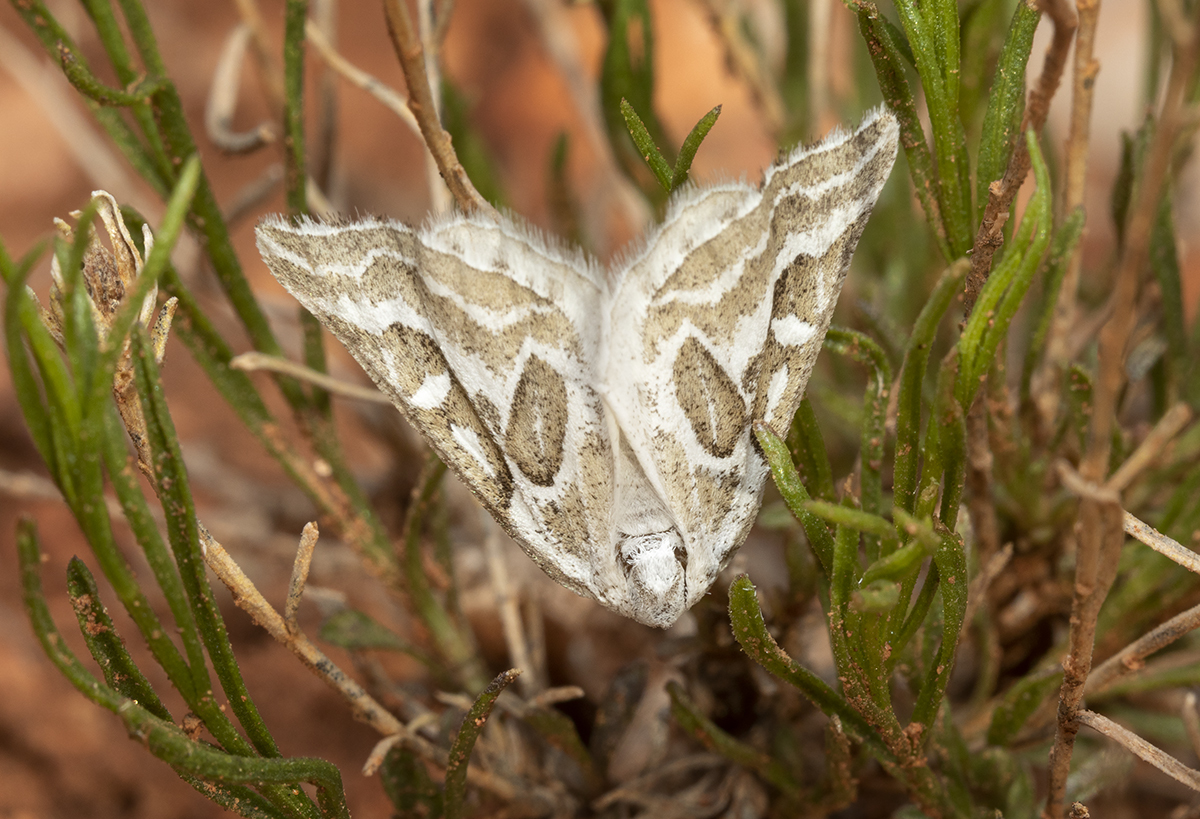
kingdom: Animalia
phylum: Arthropoda
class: Insecta
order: Lepidoptera
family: Geometridae
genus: Plataea
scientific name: Plataea trilinearia
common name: Sagebrush girdle moth
